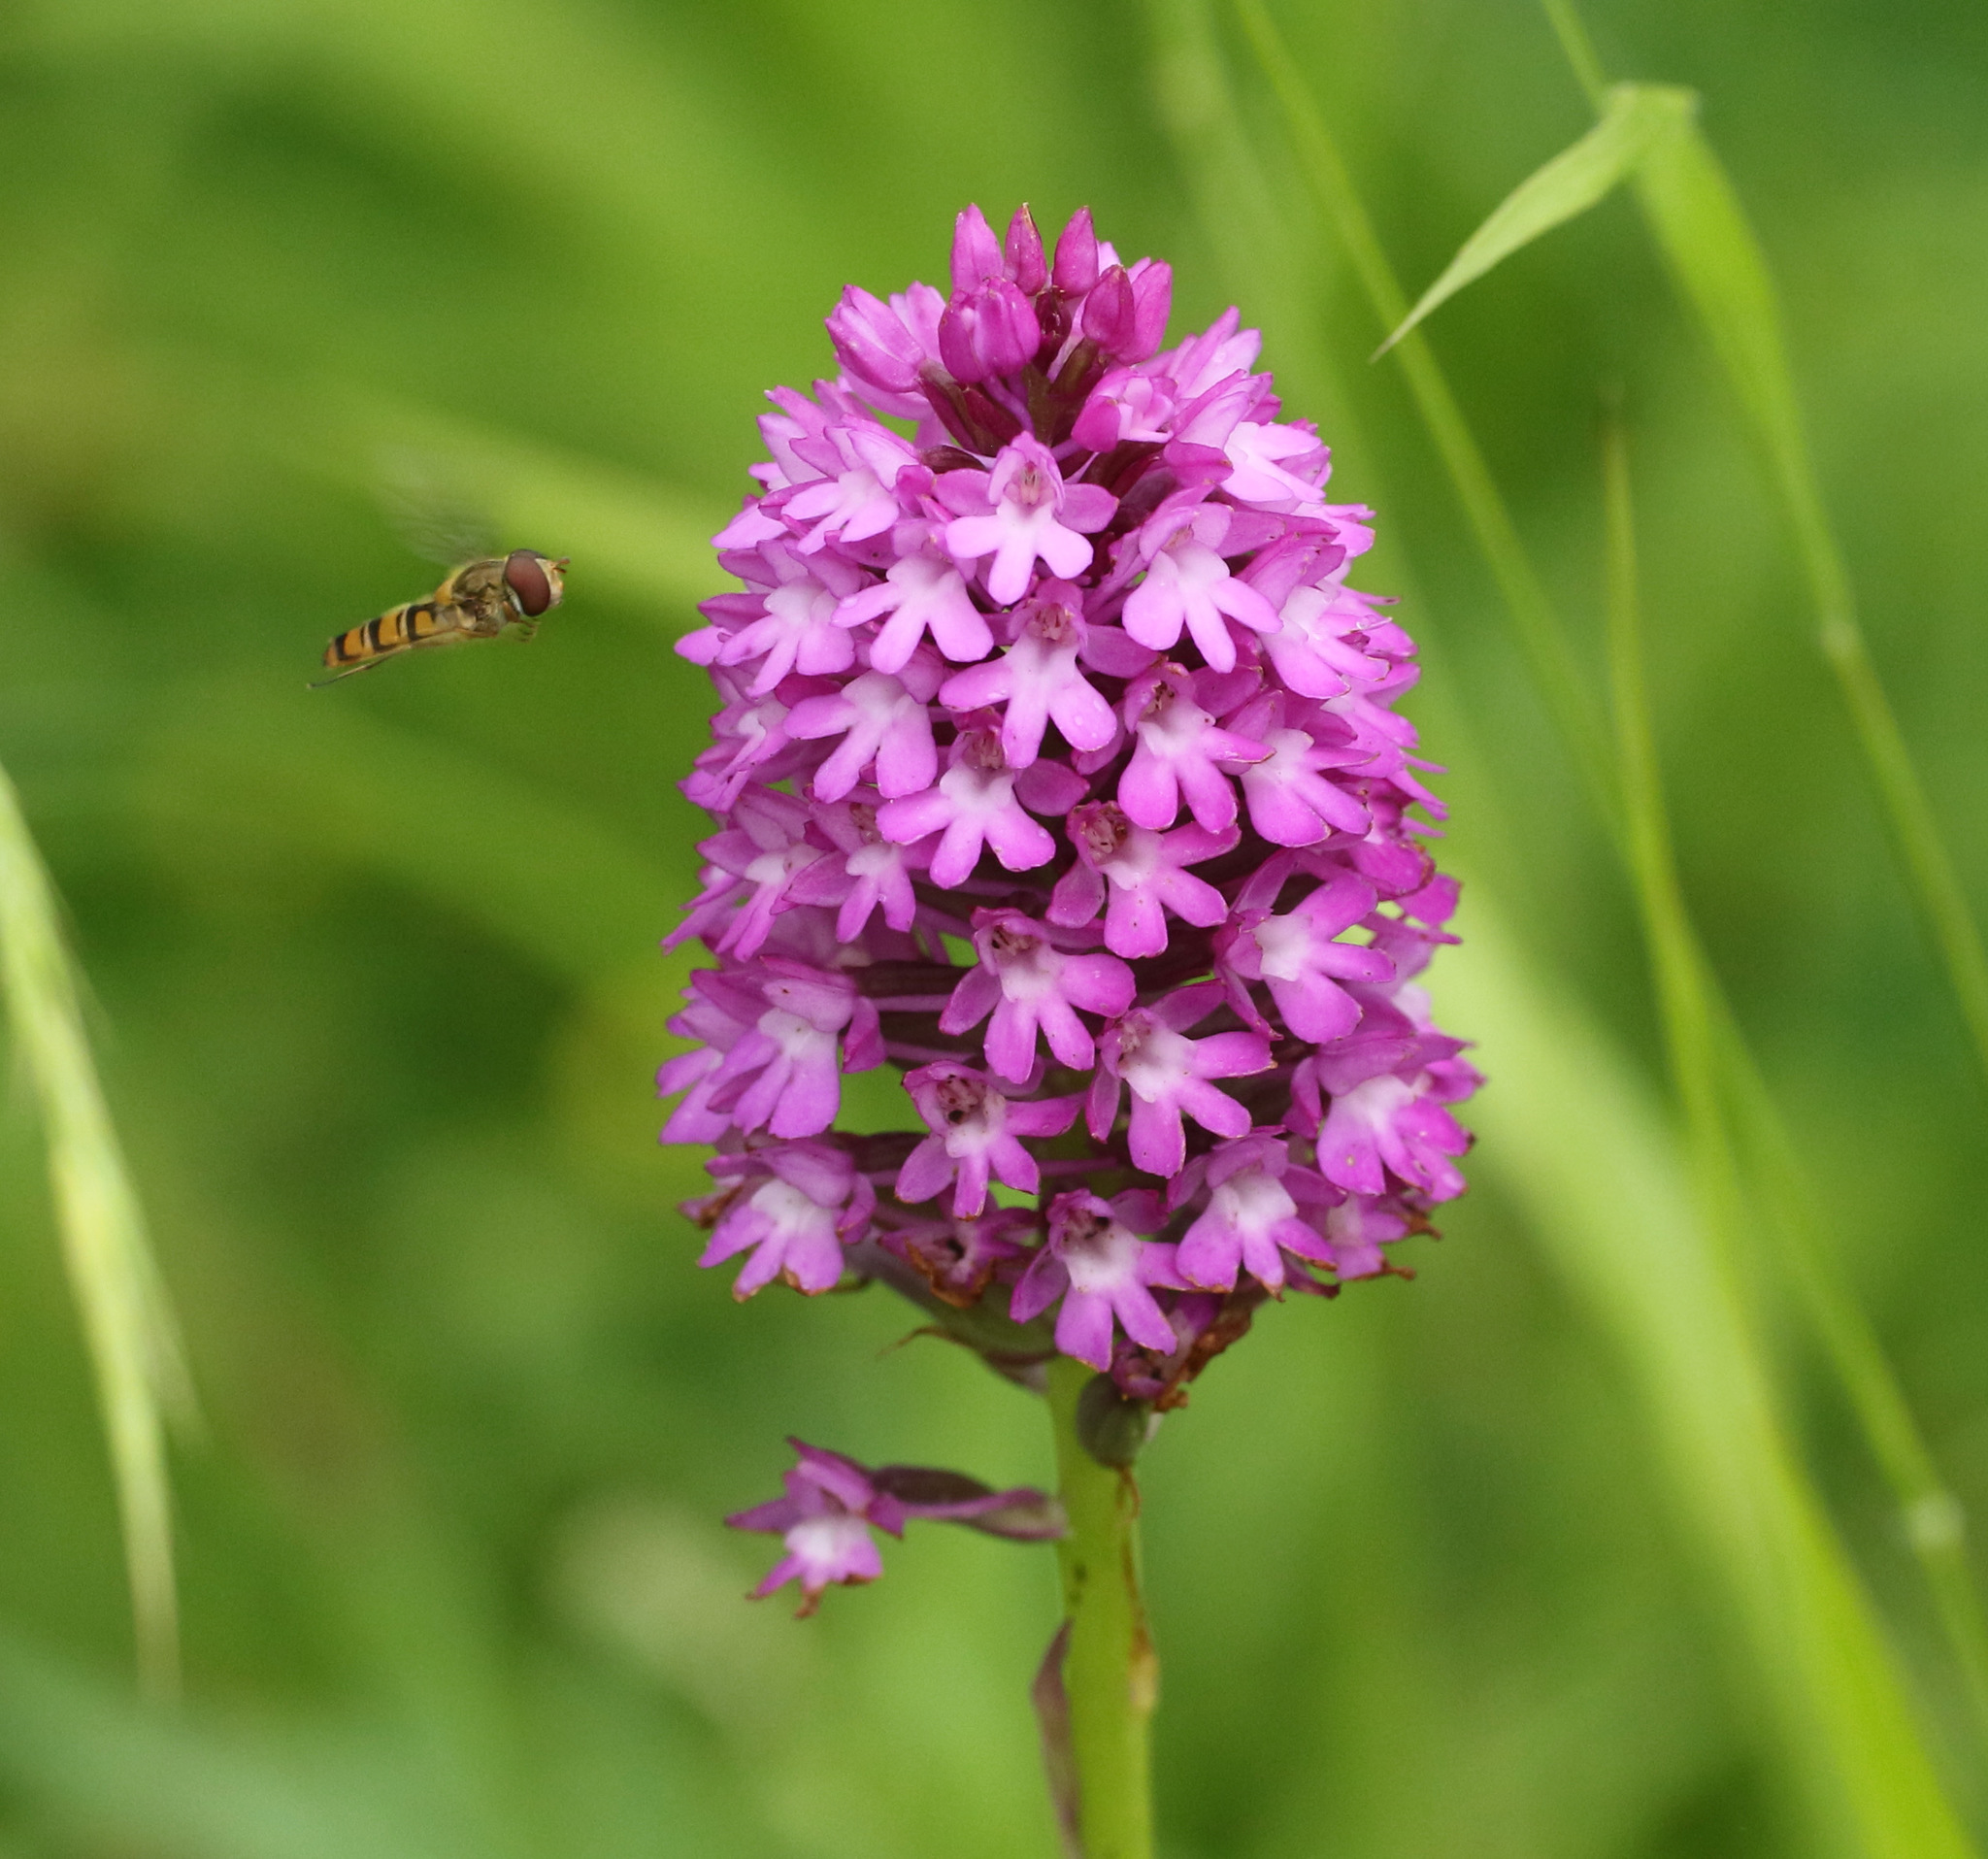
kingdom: Plantae
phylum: Tracheophyta
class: Liliopsida
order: Asparagales
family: Orchidaceae
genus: Anacamptis
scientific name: Anacamptis pyramidalis
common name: Pyramidal orchid
